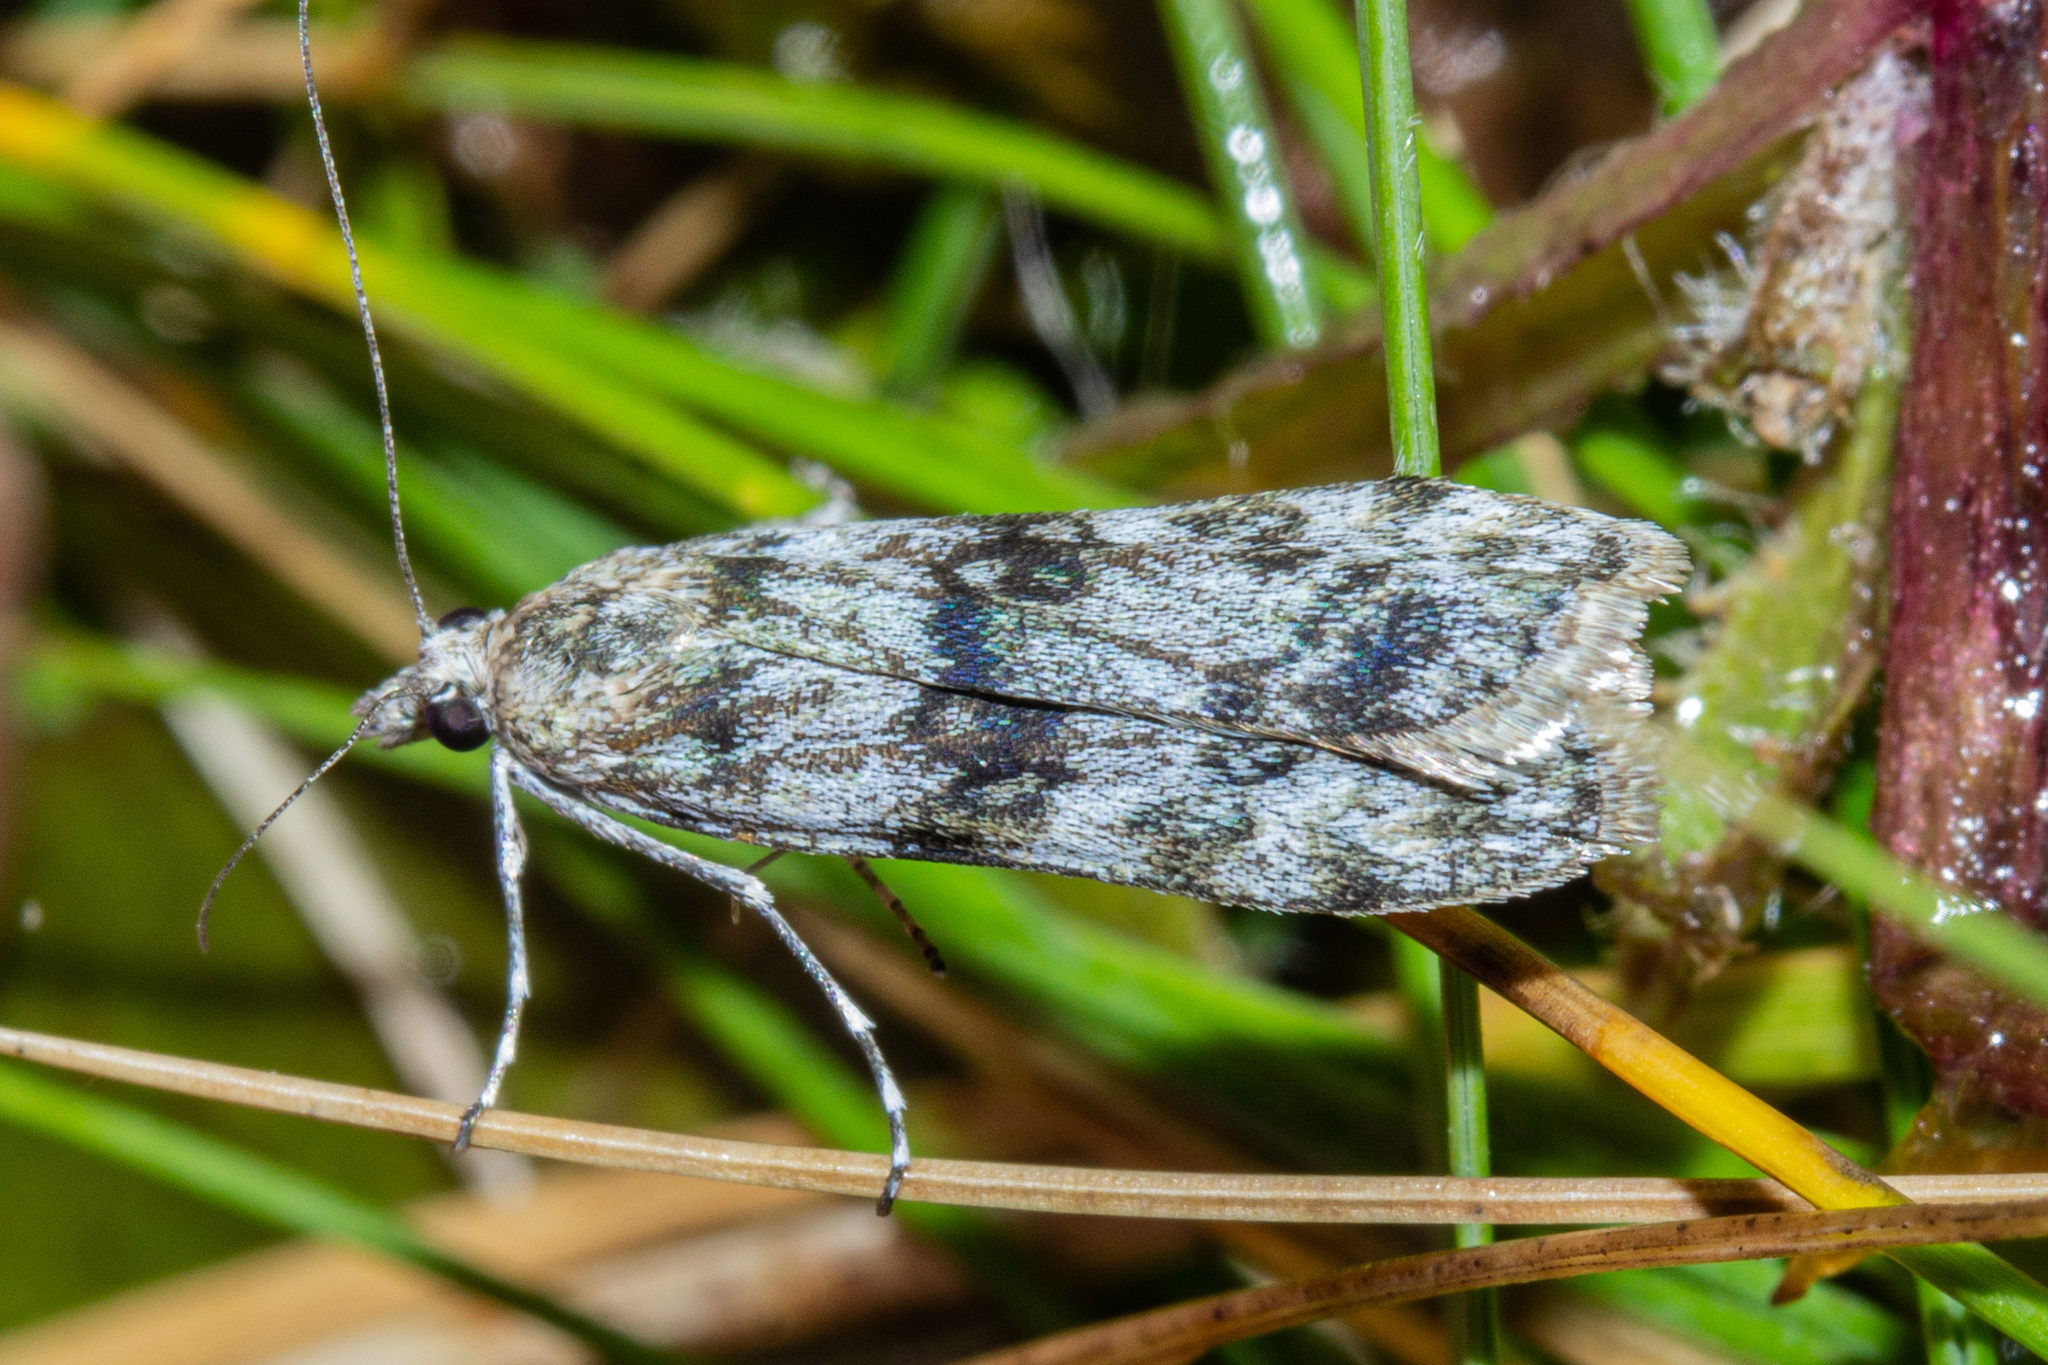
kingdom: Animalia
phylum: Arthropoda
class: Insecta
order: Lepidoptera
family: Crambidae
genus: Scoparia
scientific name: Scoparia asaleuta
